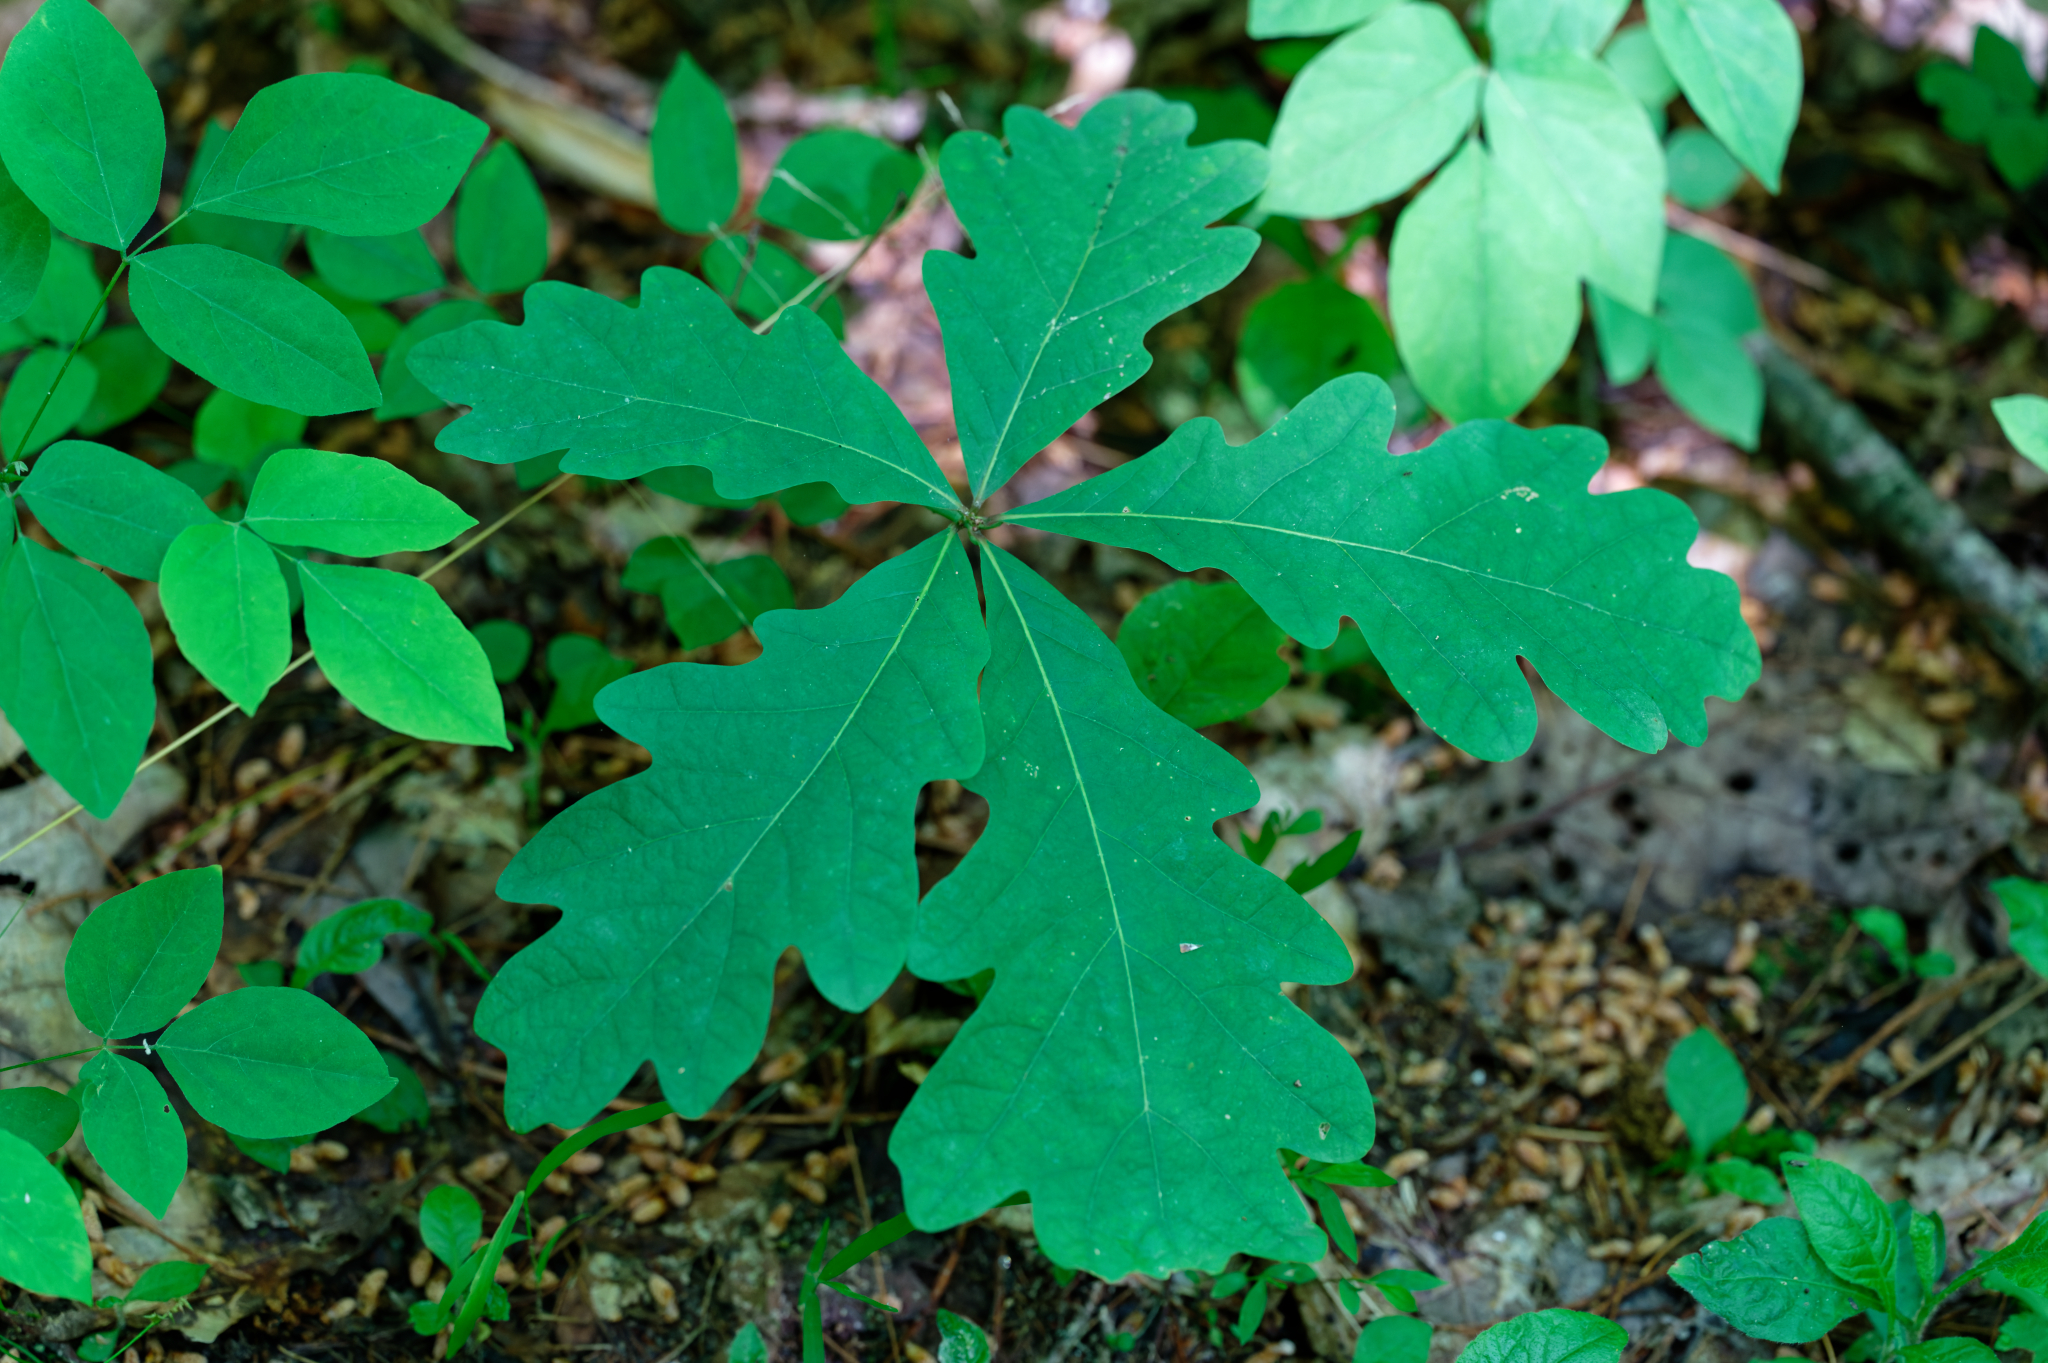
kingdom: Plantae
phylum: Tracheophyta
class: Magnoliopsida
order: Fagales
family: Fagaceae
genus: Quercus
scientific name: Quercus alba
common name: White oak
